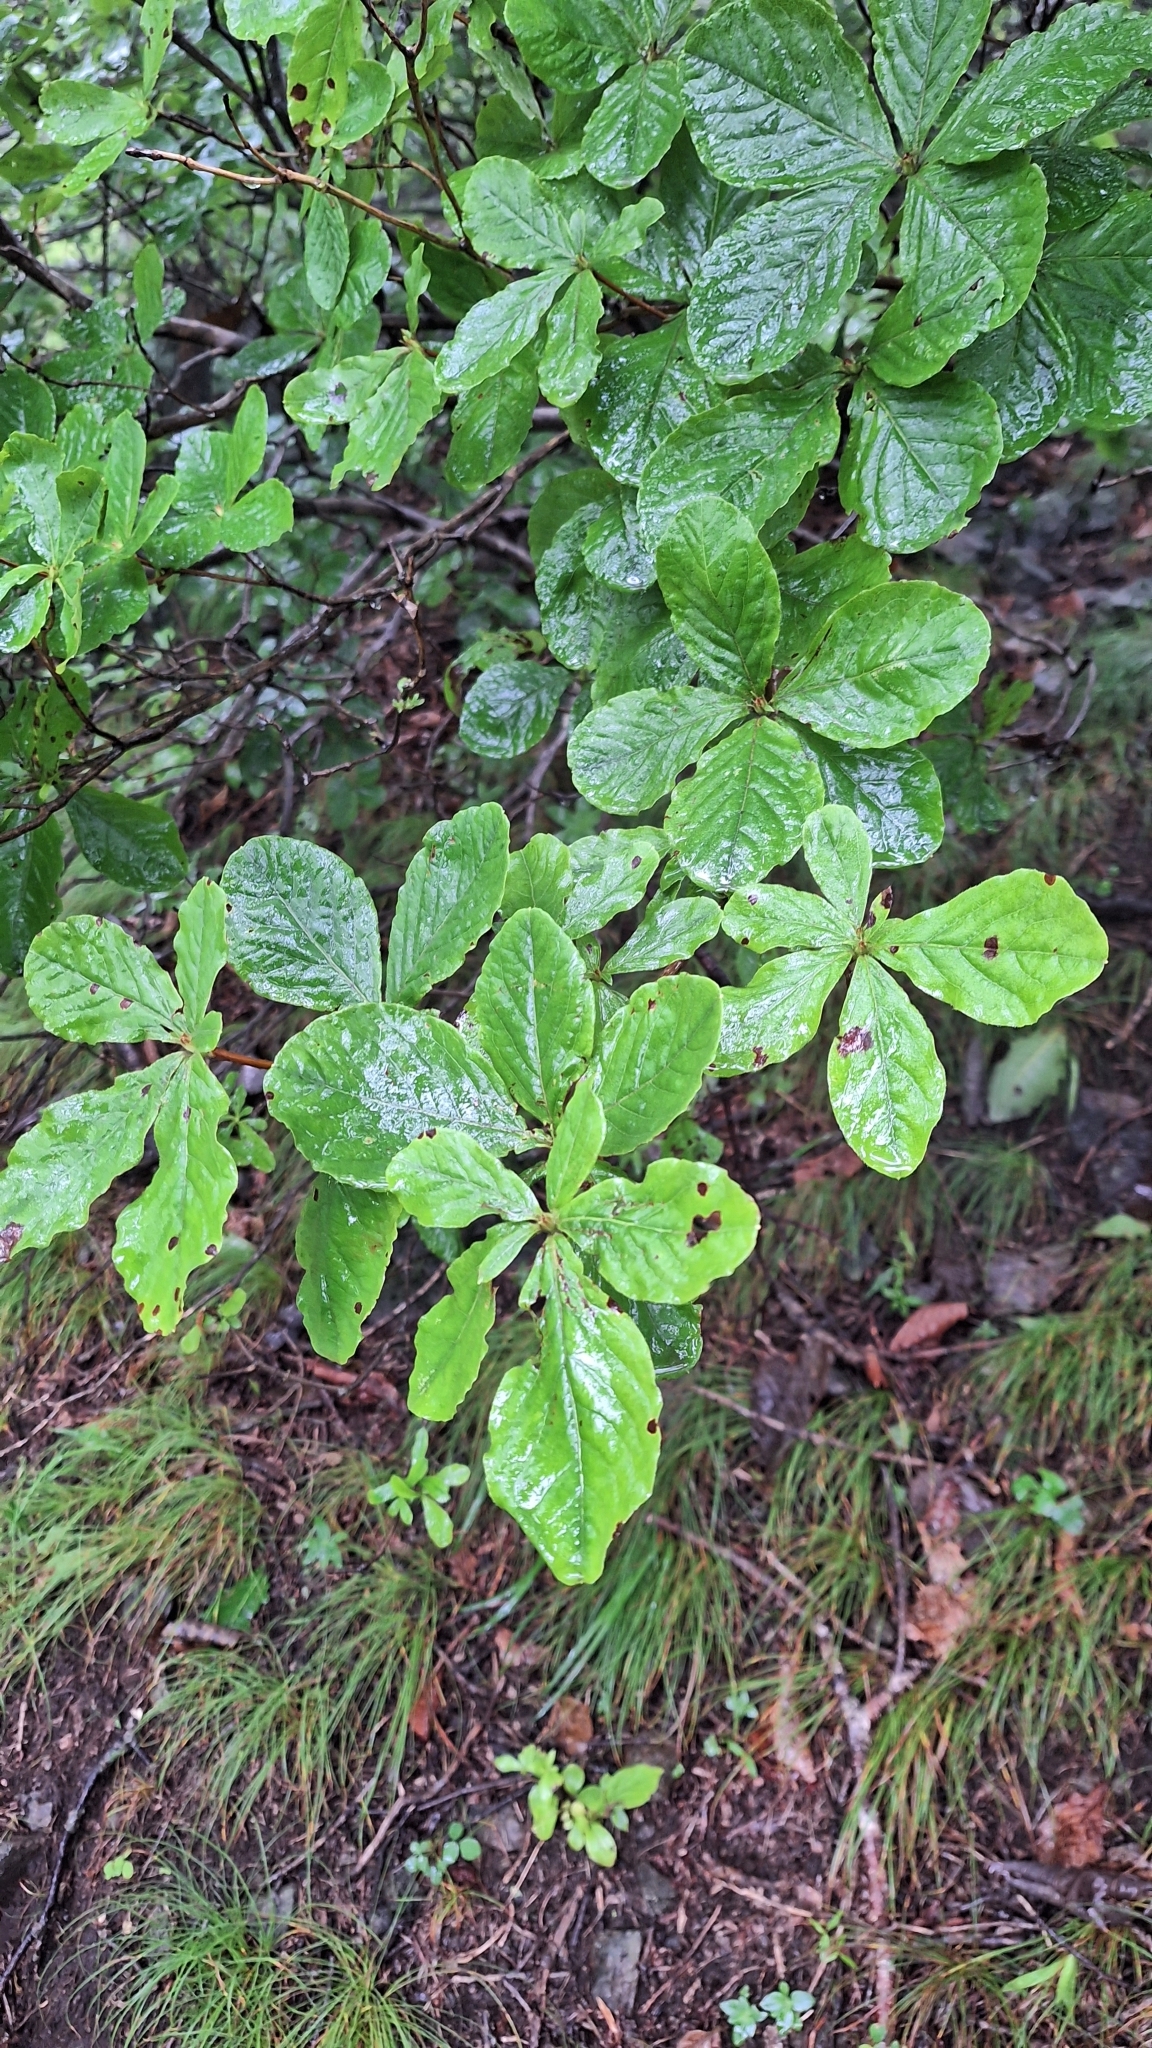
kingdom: Plantae
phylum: Tracheophyta
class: Magnoliopsida
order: Ericales
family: Ericaceae
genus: Rhododendron
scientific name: Rhododendron schlippenbachii
